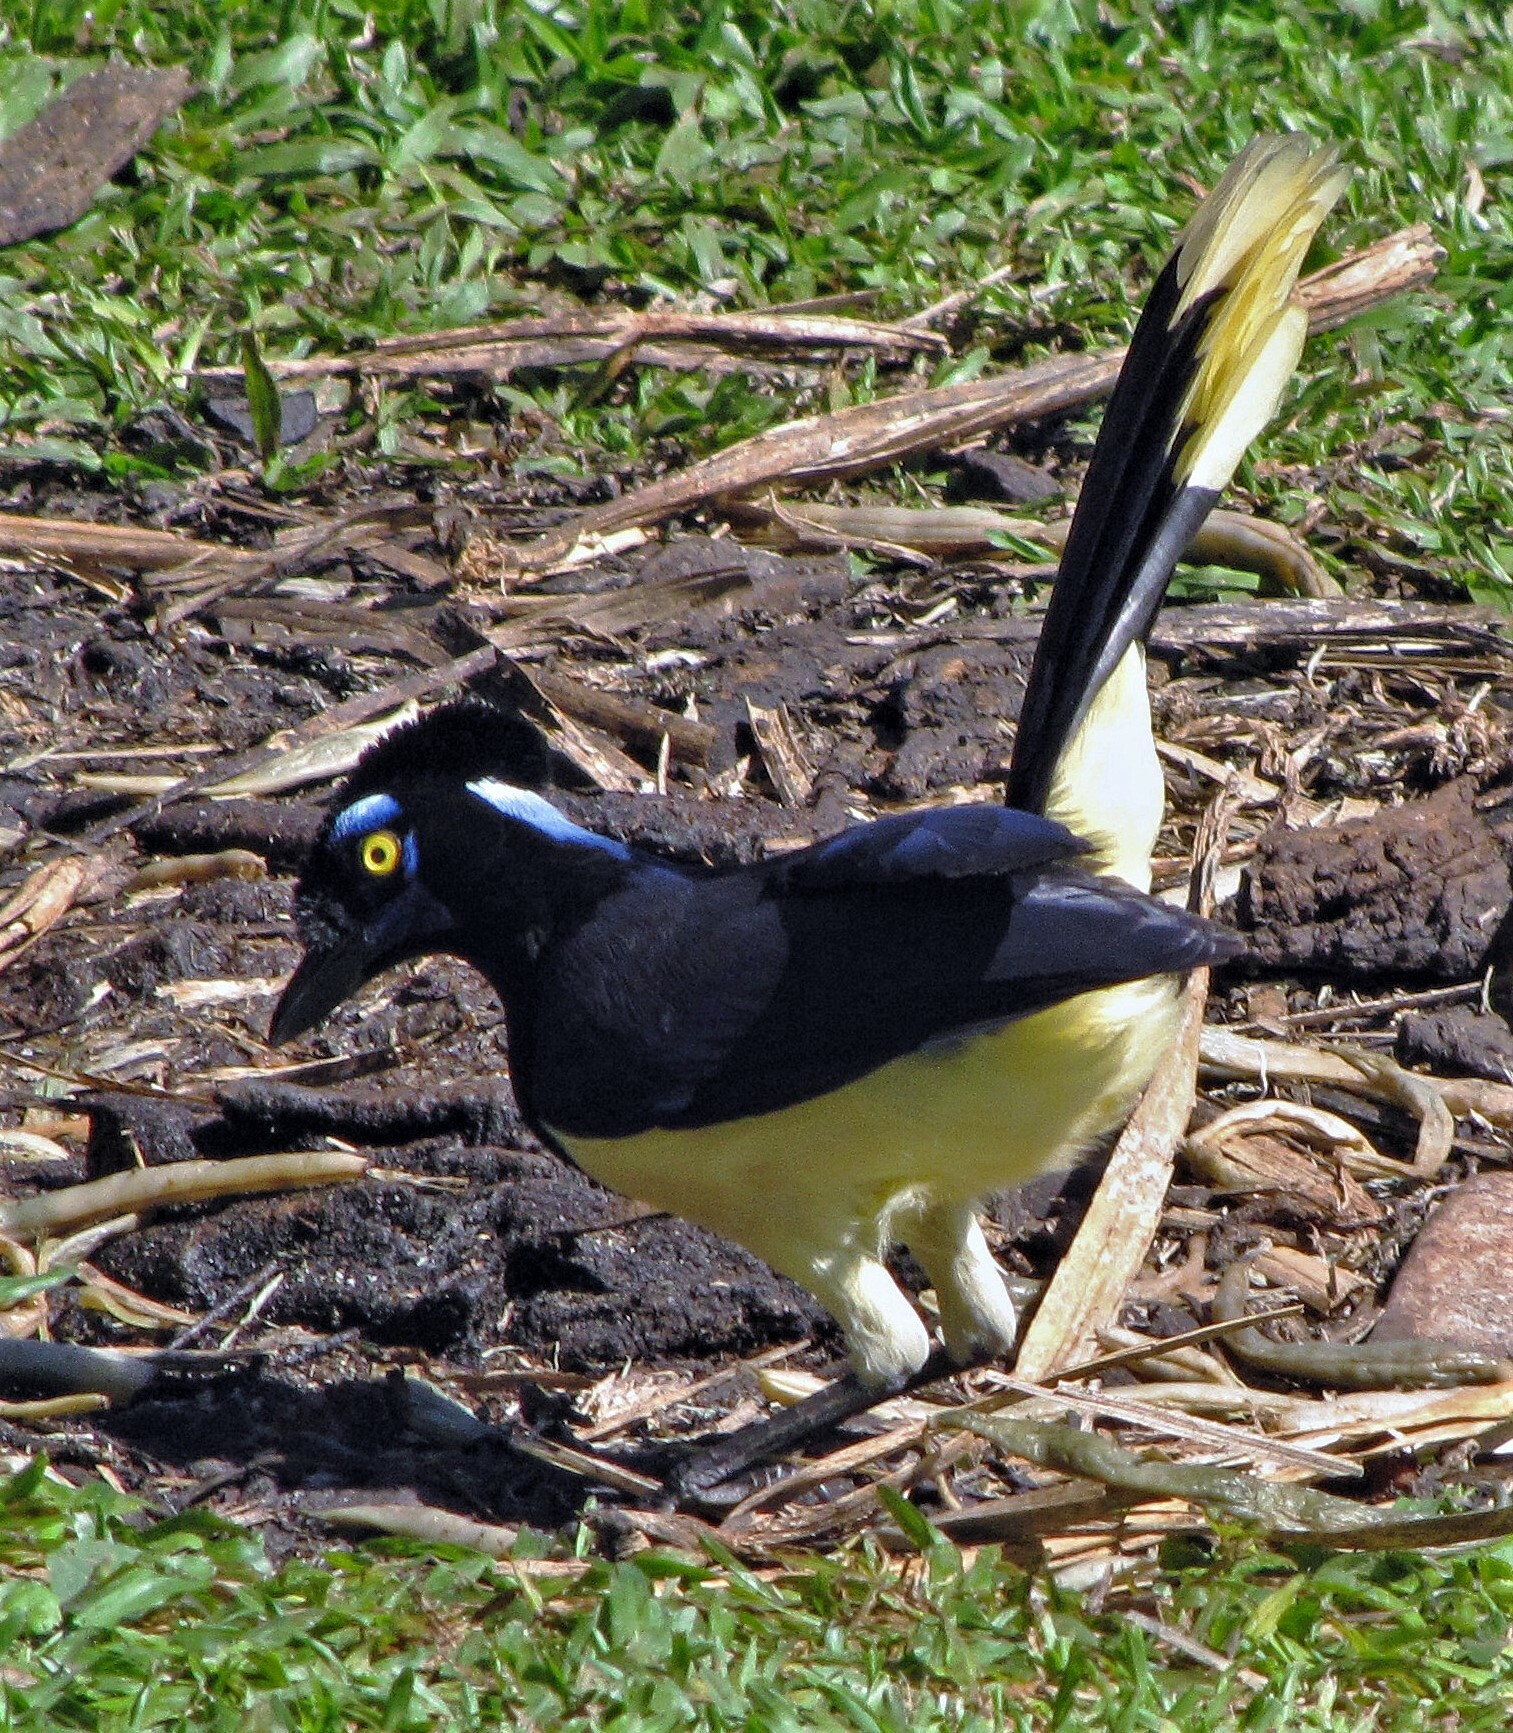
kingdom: Animalia
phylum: Chordata
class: Aves
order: Passeriformes
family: Corvidae
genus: Cyanocorax
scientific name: Cyanocorax chrysops
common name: Plush-crested jay
